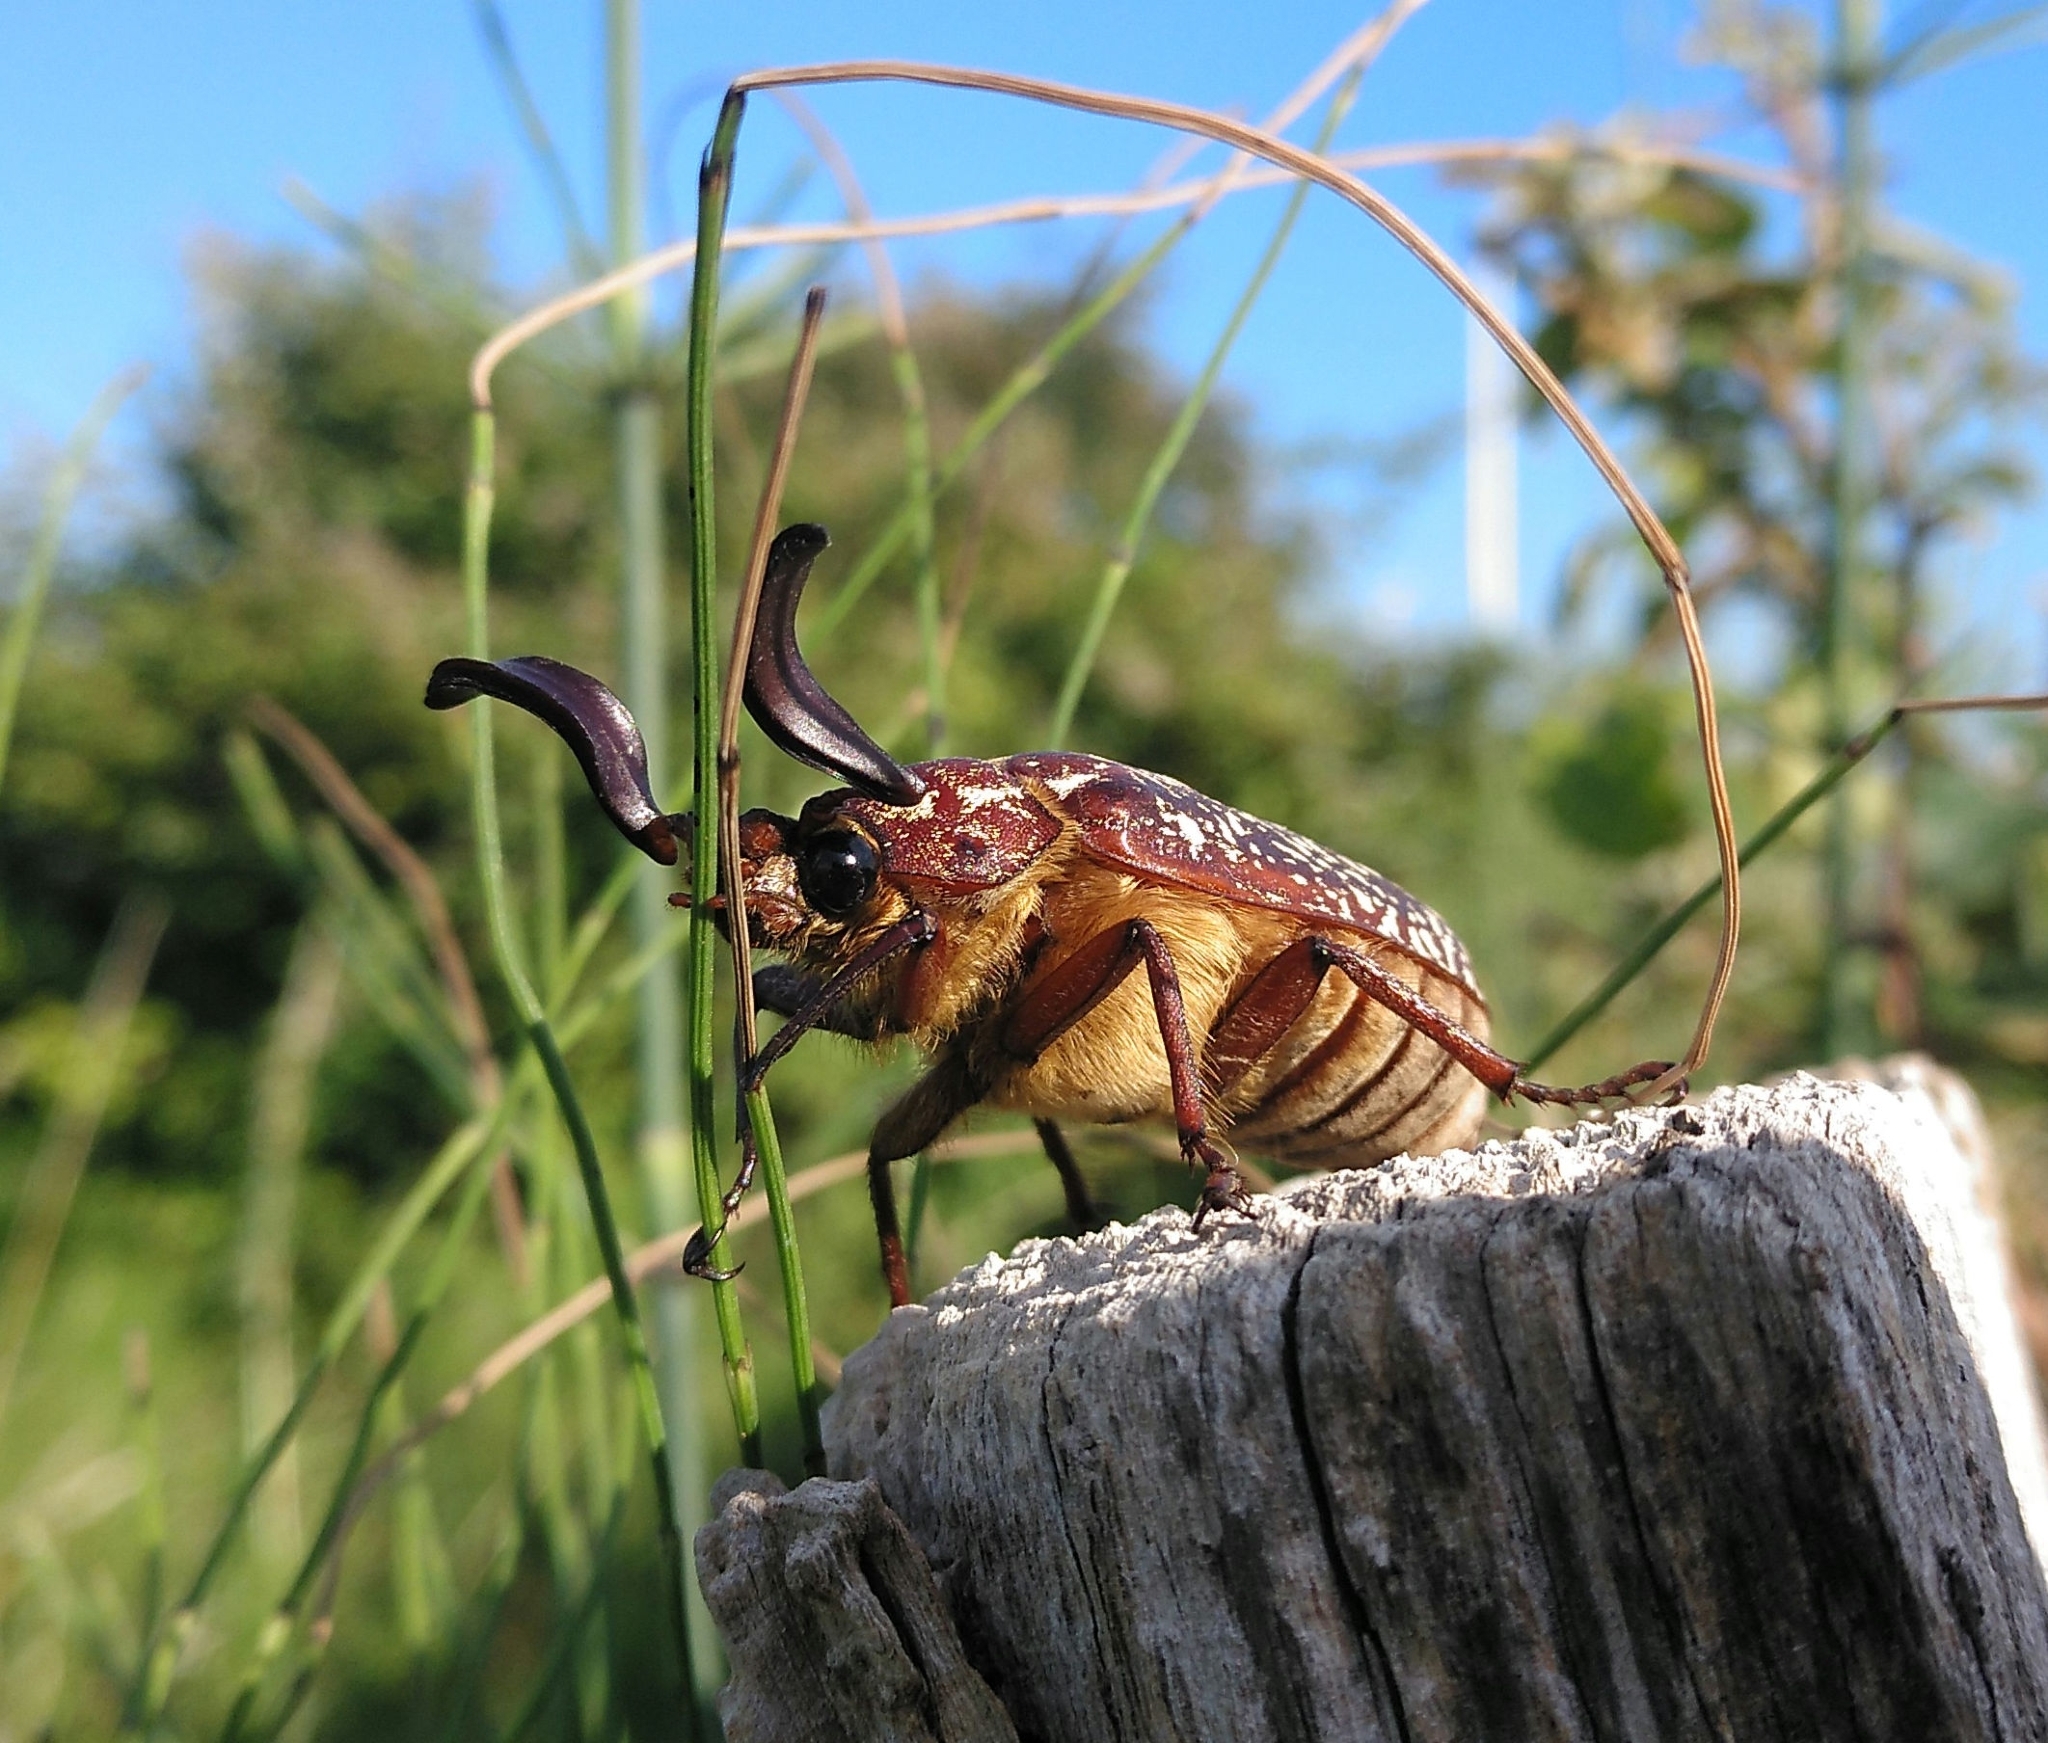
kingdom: Animalia
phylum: Arthropoda
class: Insecta
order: Coleoptera
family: Scarabaeidae
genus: Polyphylla
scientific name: Polyphylla fullo
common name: Pine chafer
